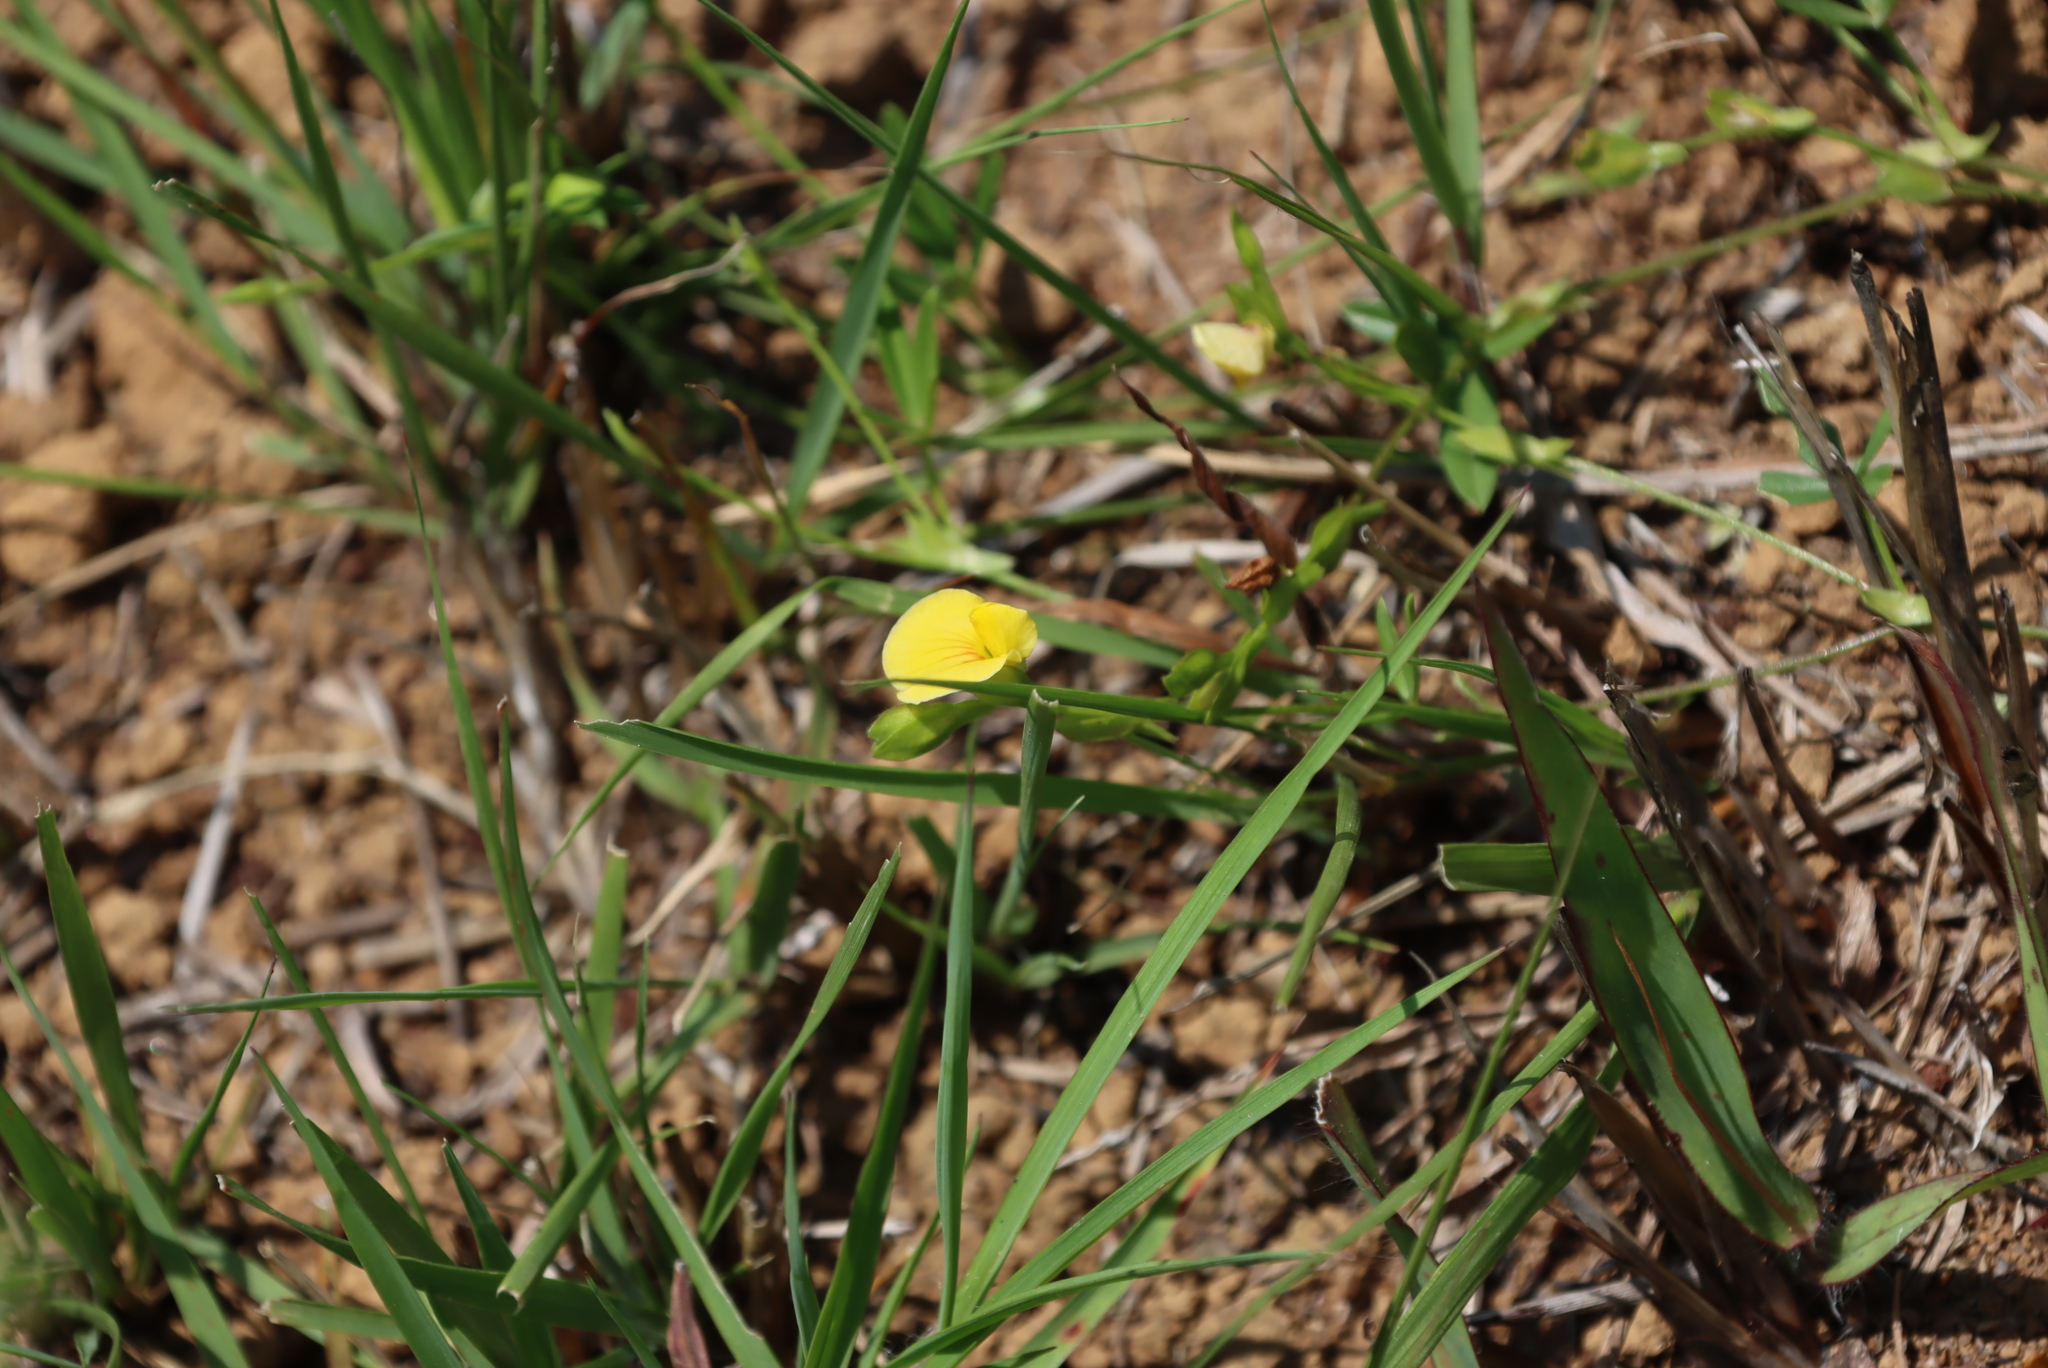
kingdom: Plantae
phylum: Tracheophyta
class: Magnoliopsida
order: Fabales
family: Fabaceae
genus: Zornia
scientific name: Zornia capensis
